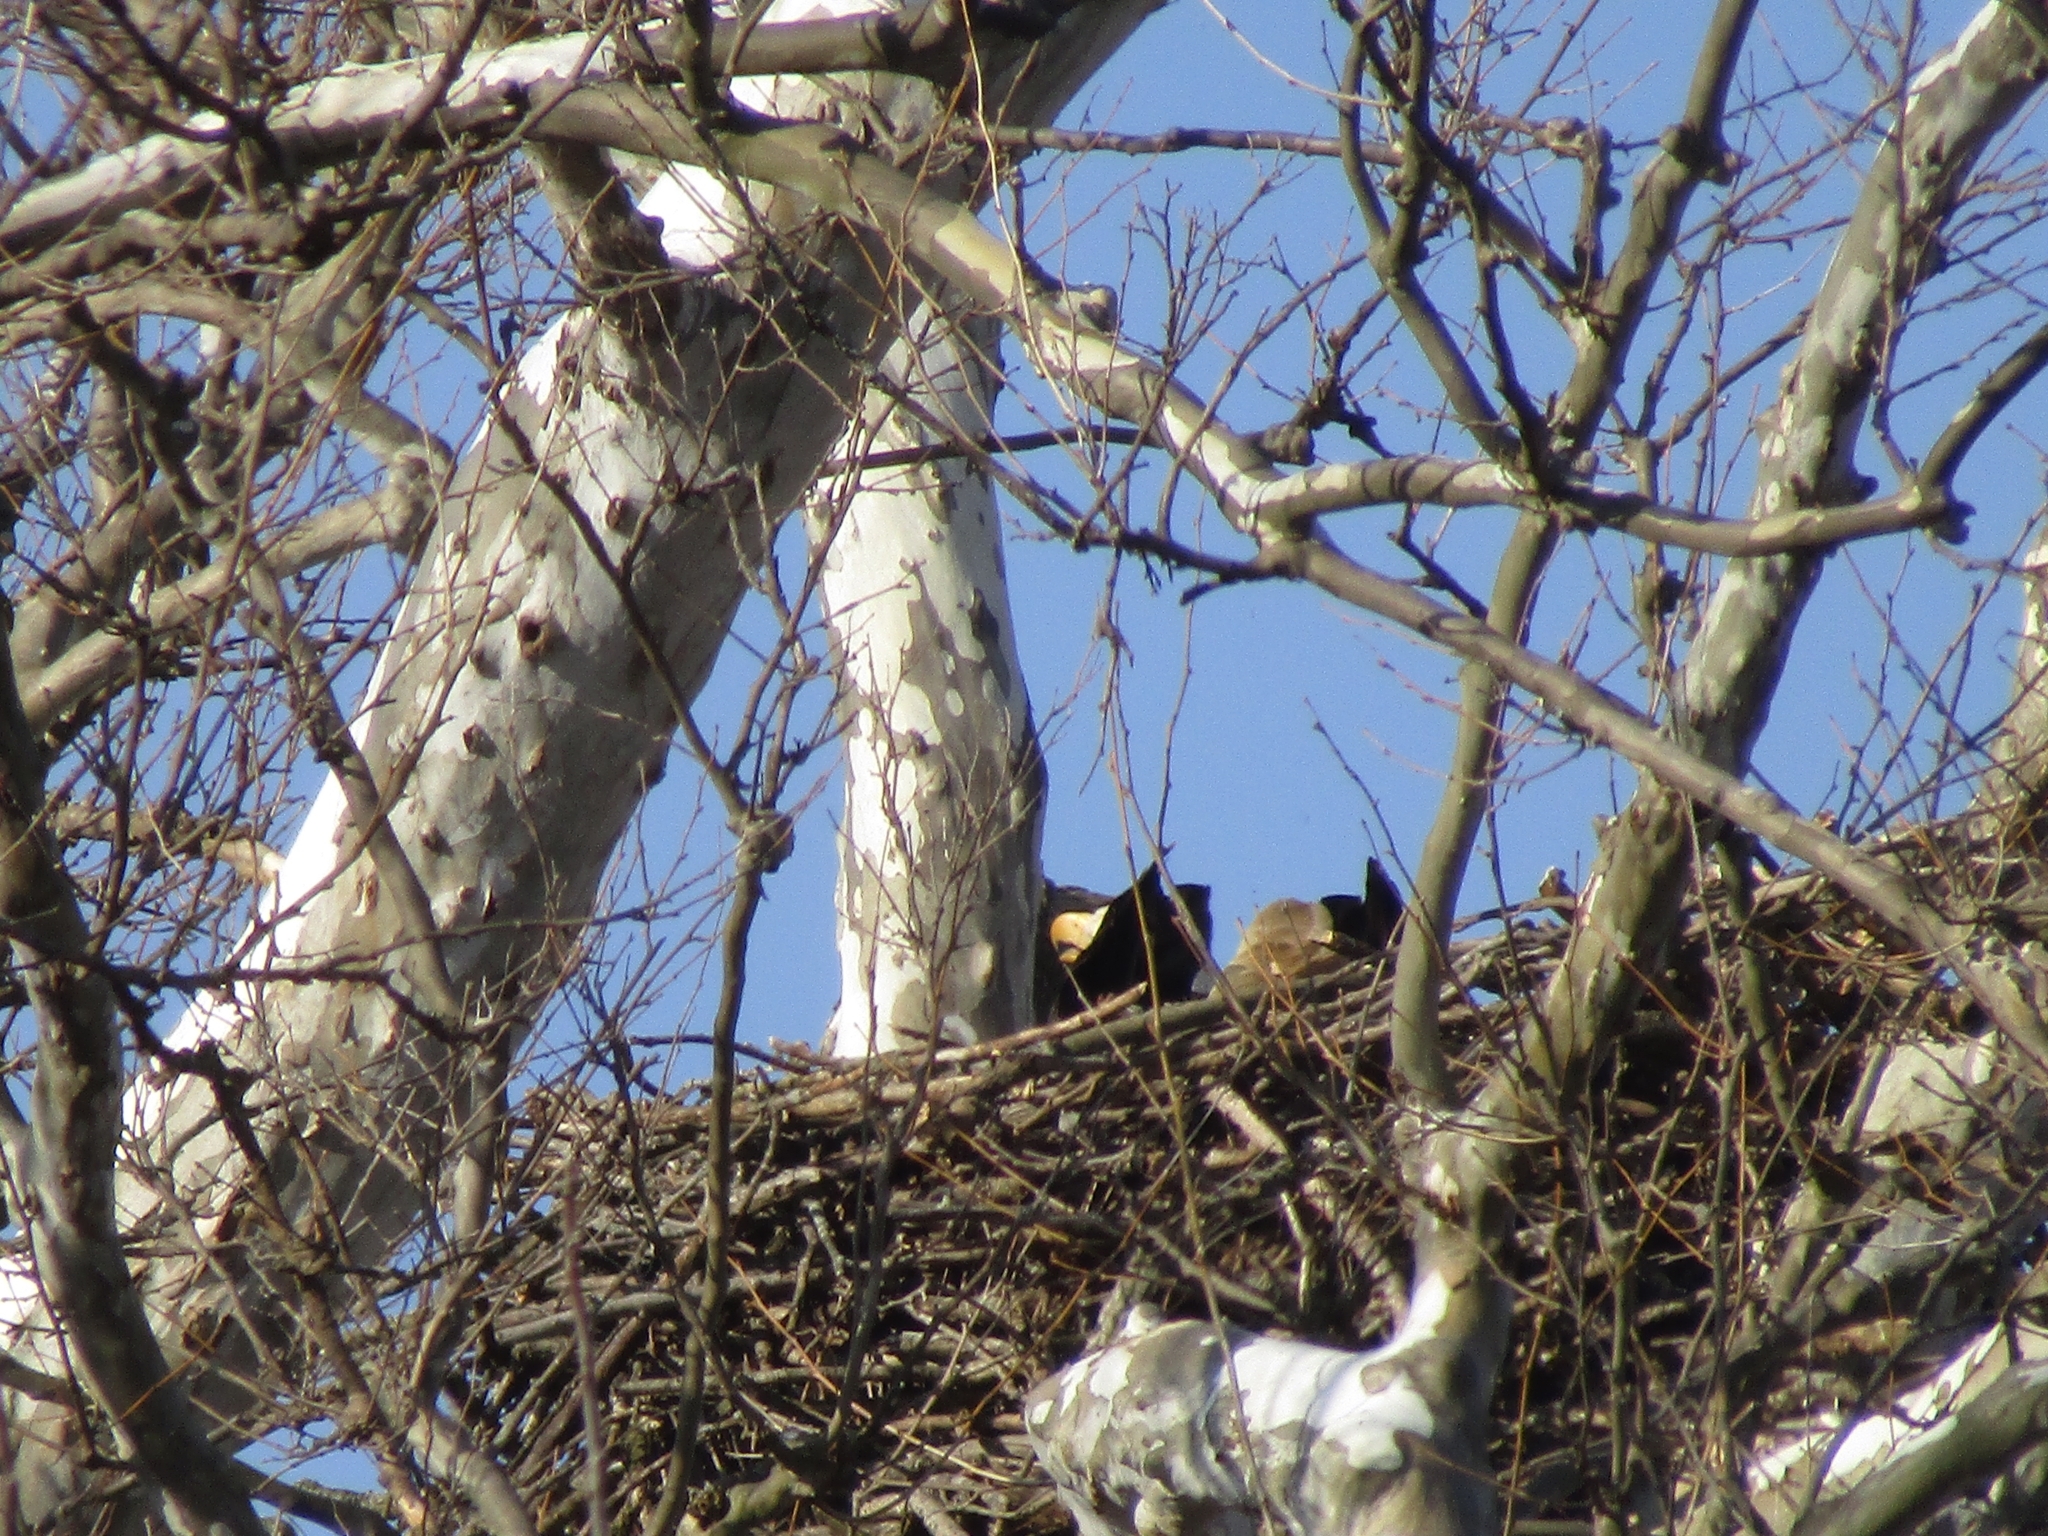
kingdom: Animalia
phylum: Chordata
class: Aves
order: Accipitriformes
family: Accipitridae
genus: Haliaeetus
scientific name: Haliaeetus leucocephalus
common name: Bald eagle
